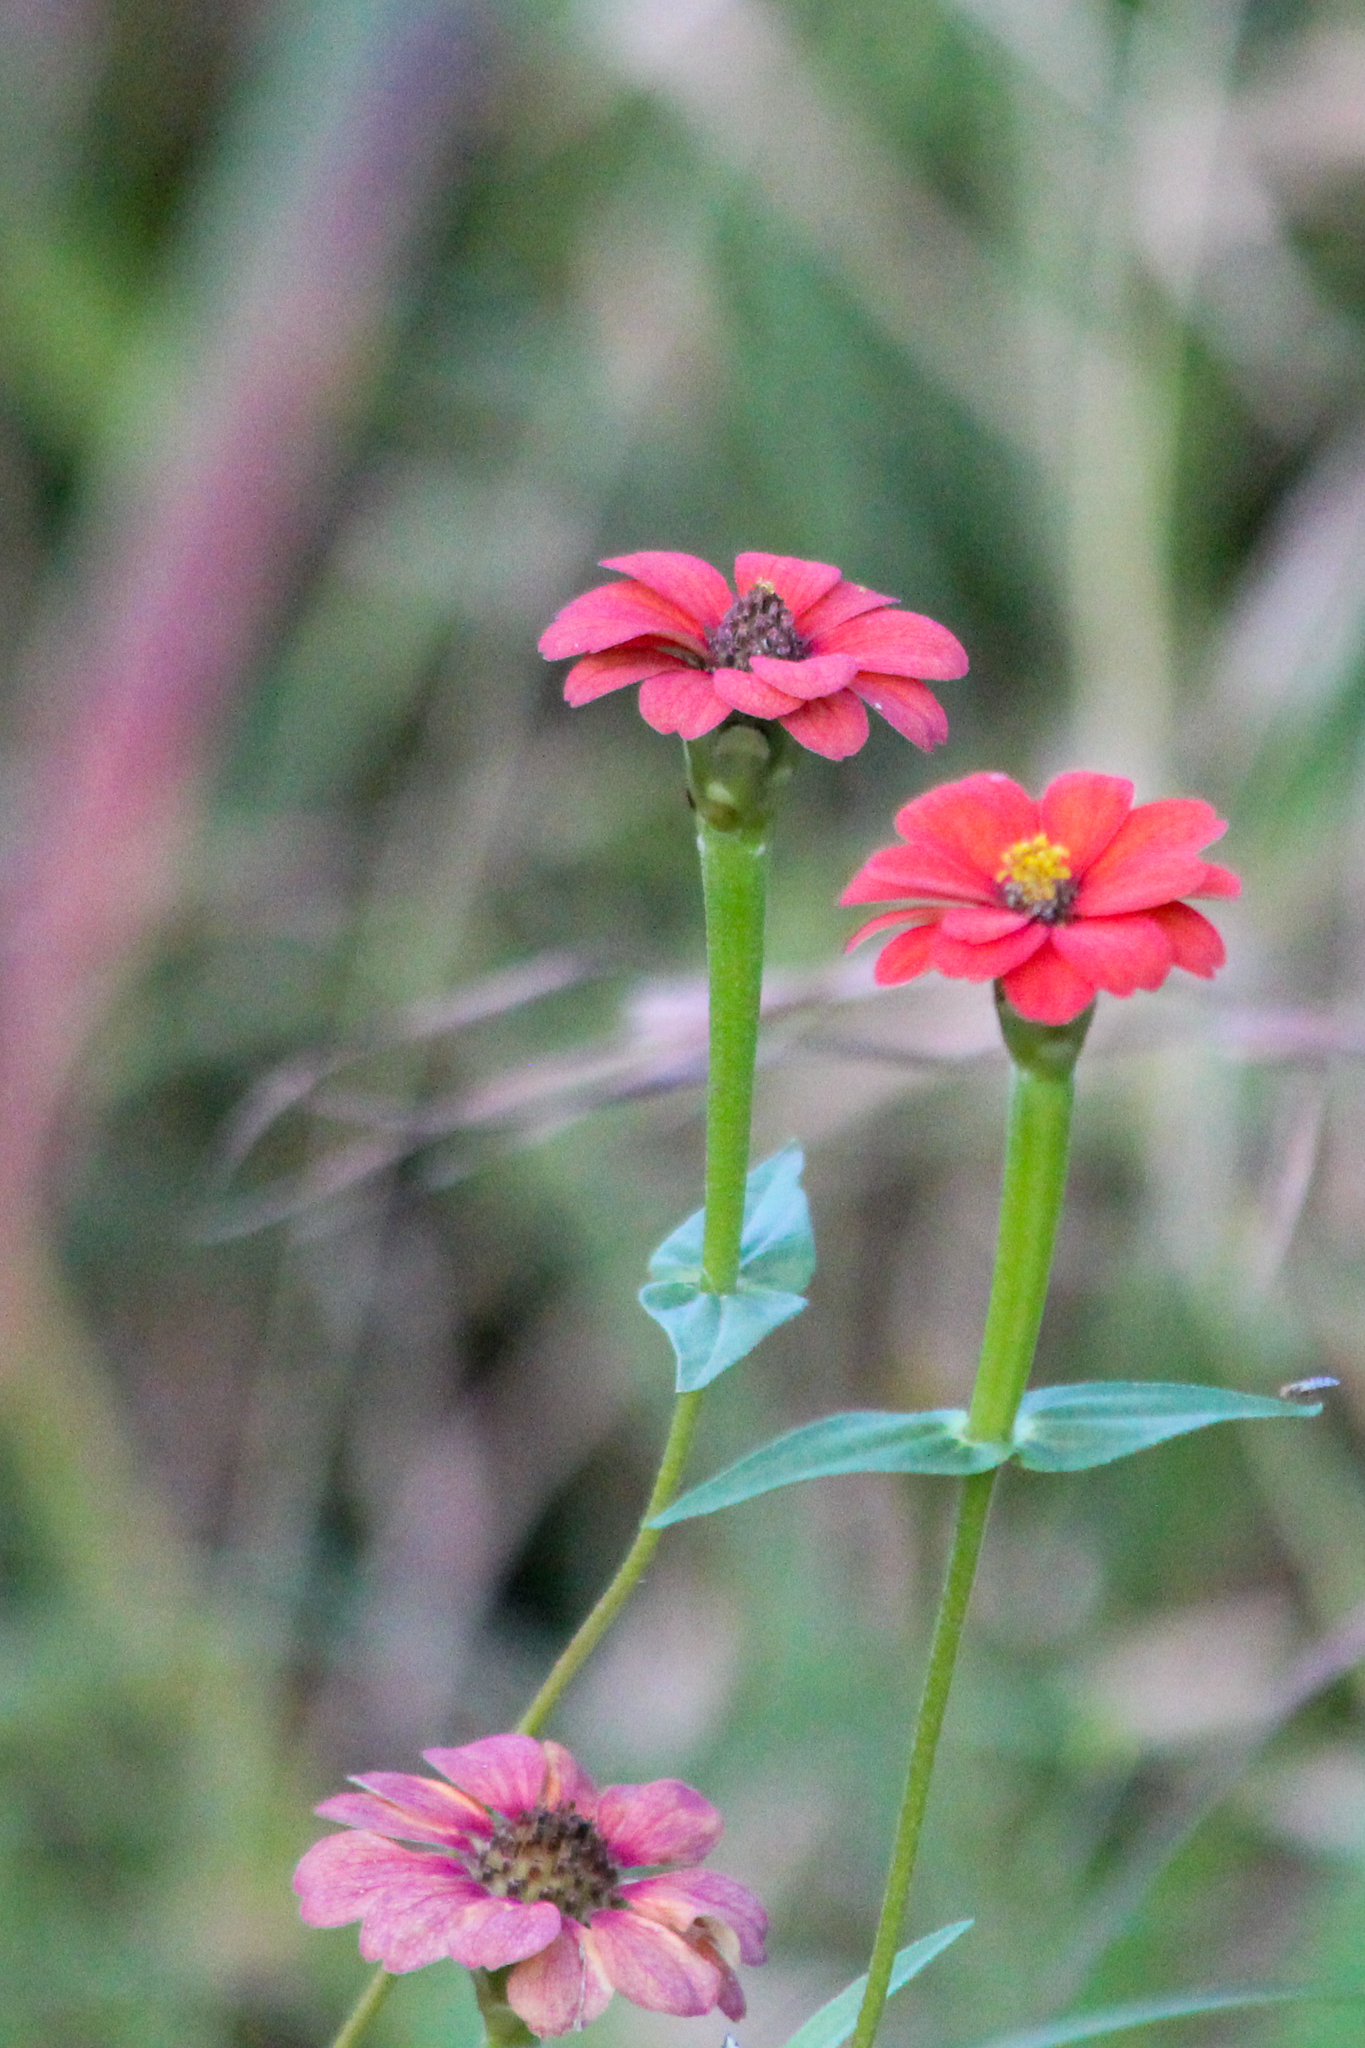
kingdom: Plantae
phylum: Tracheophyta
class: Magnoliopsida
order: Asterales
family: Asteraceae
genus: Zinnia
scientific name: Zinnia peruviana
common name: Peruvian zinnia
